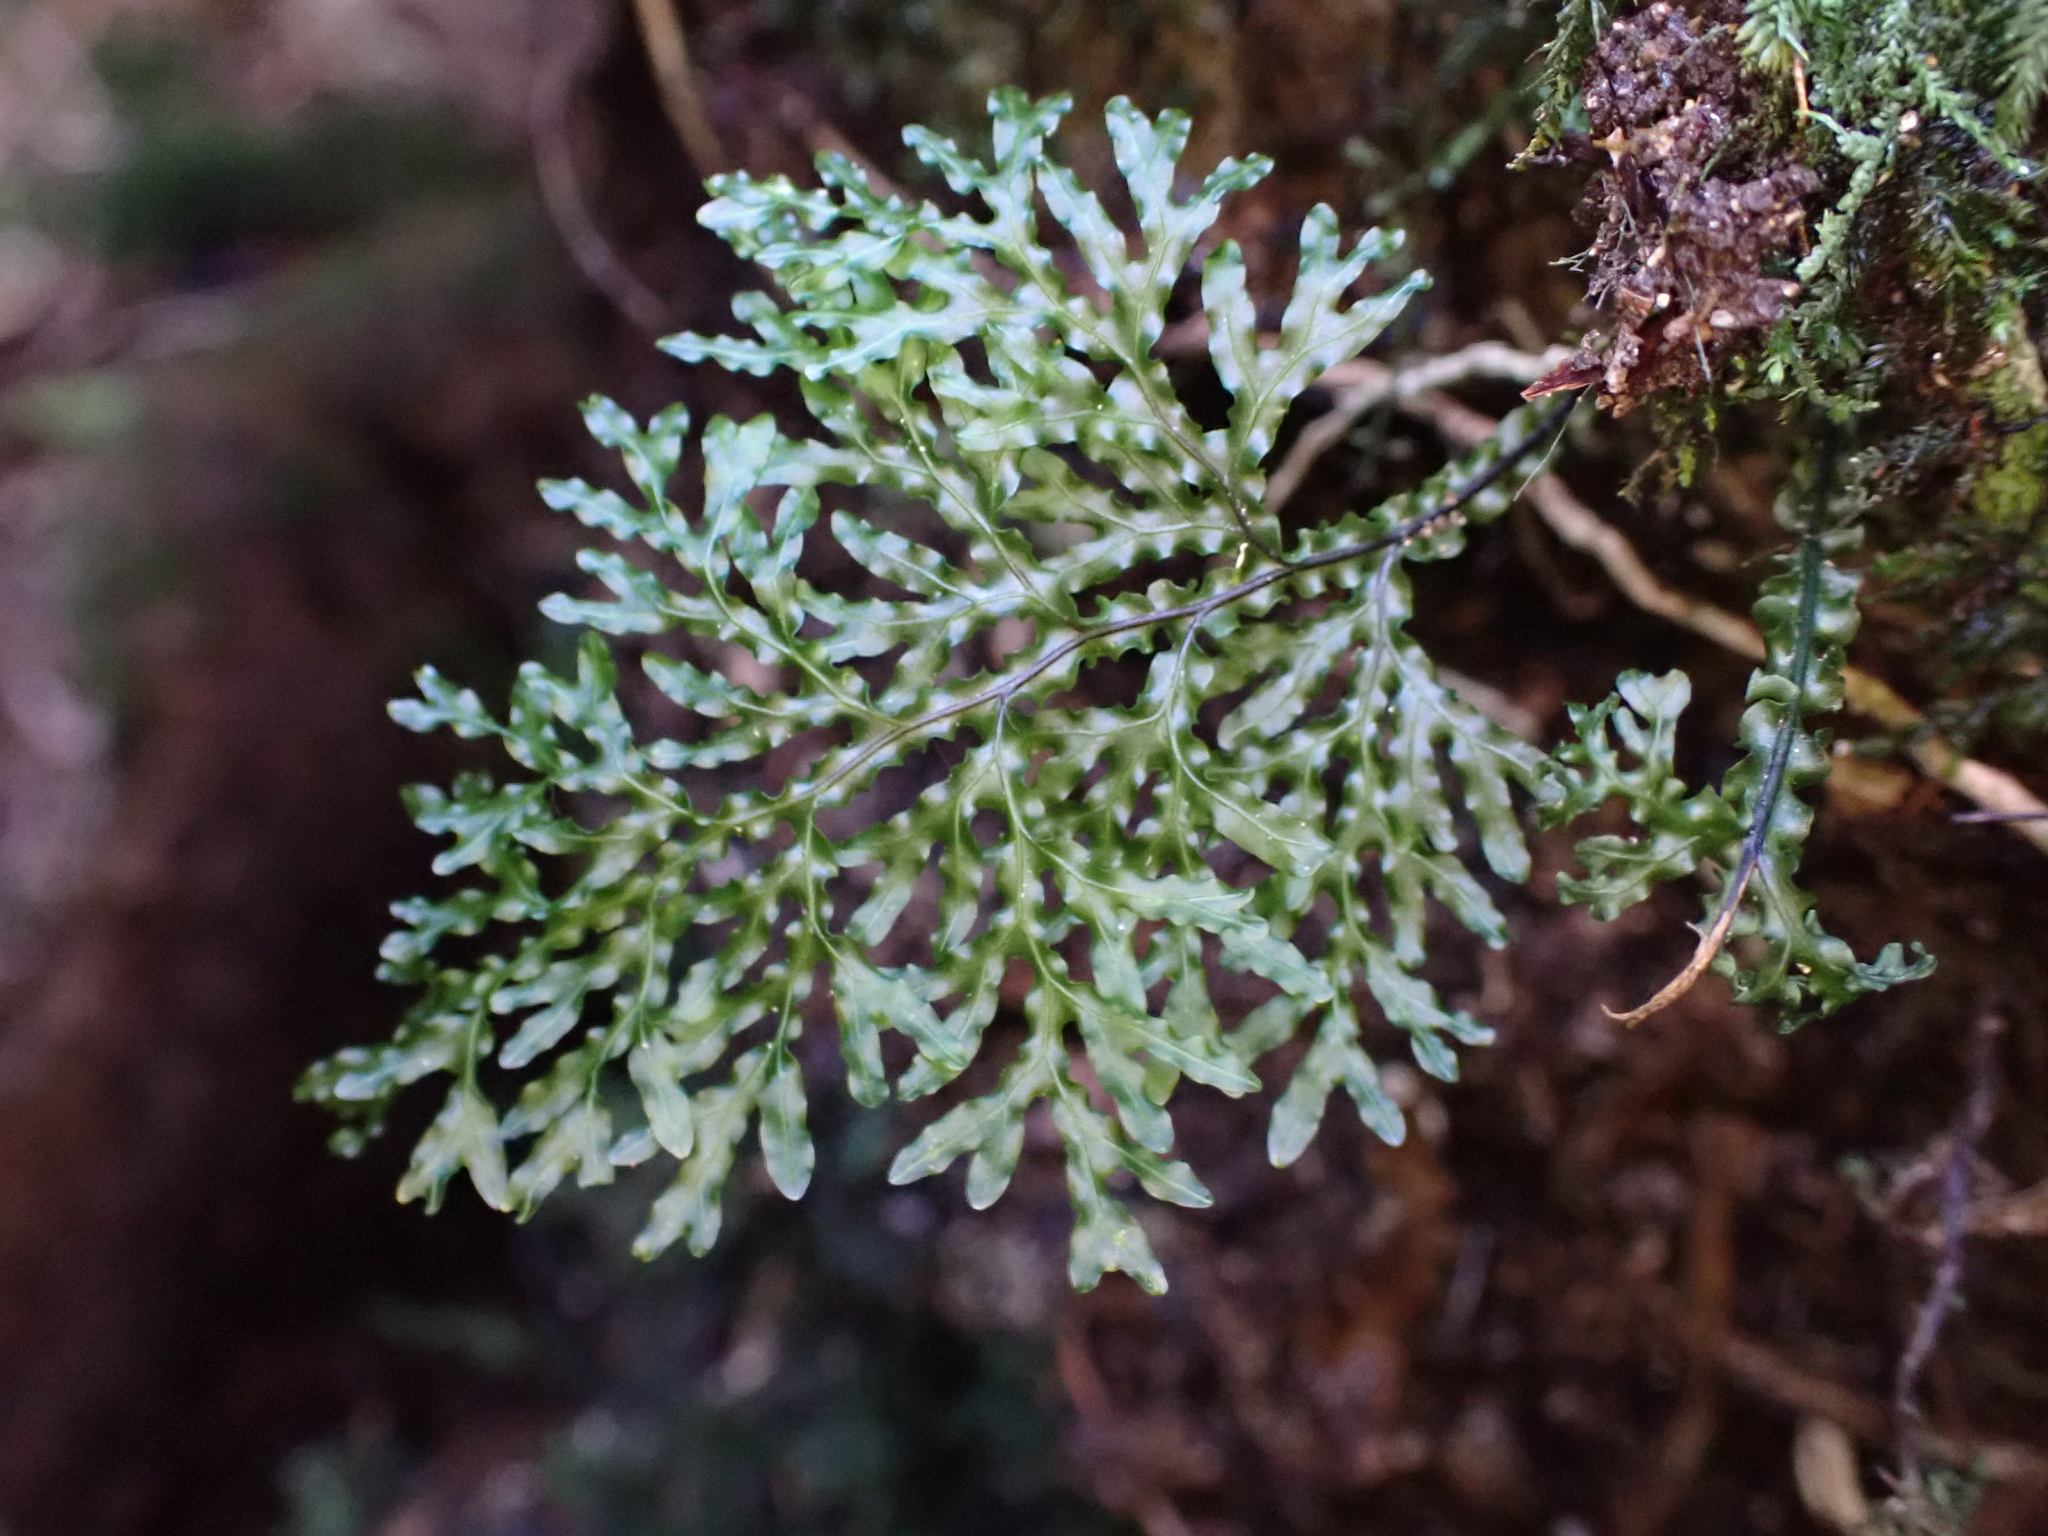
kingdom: Plantae
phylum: Tracheophyta
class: Polypodiopsida
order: Hymenophyllales
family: Hymenophyllaceae
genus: Hymenophyllum
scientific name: Hymenophyllum flexuosum
